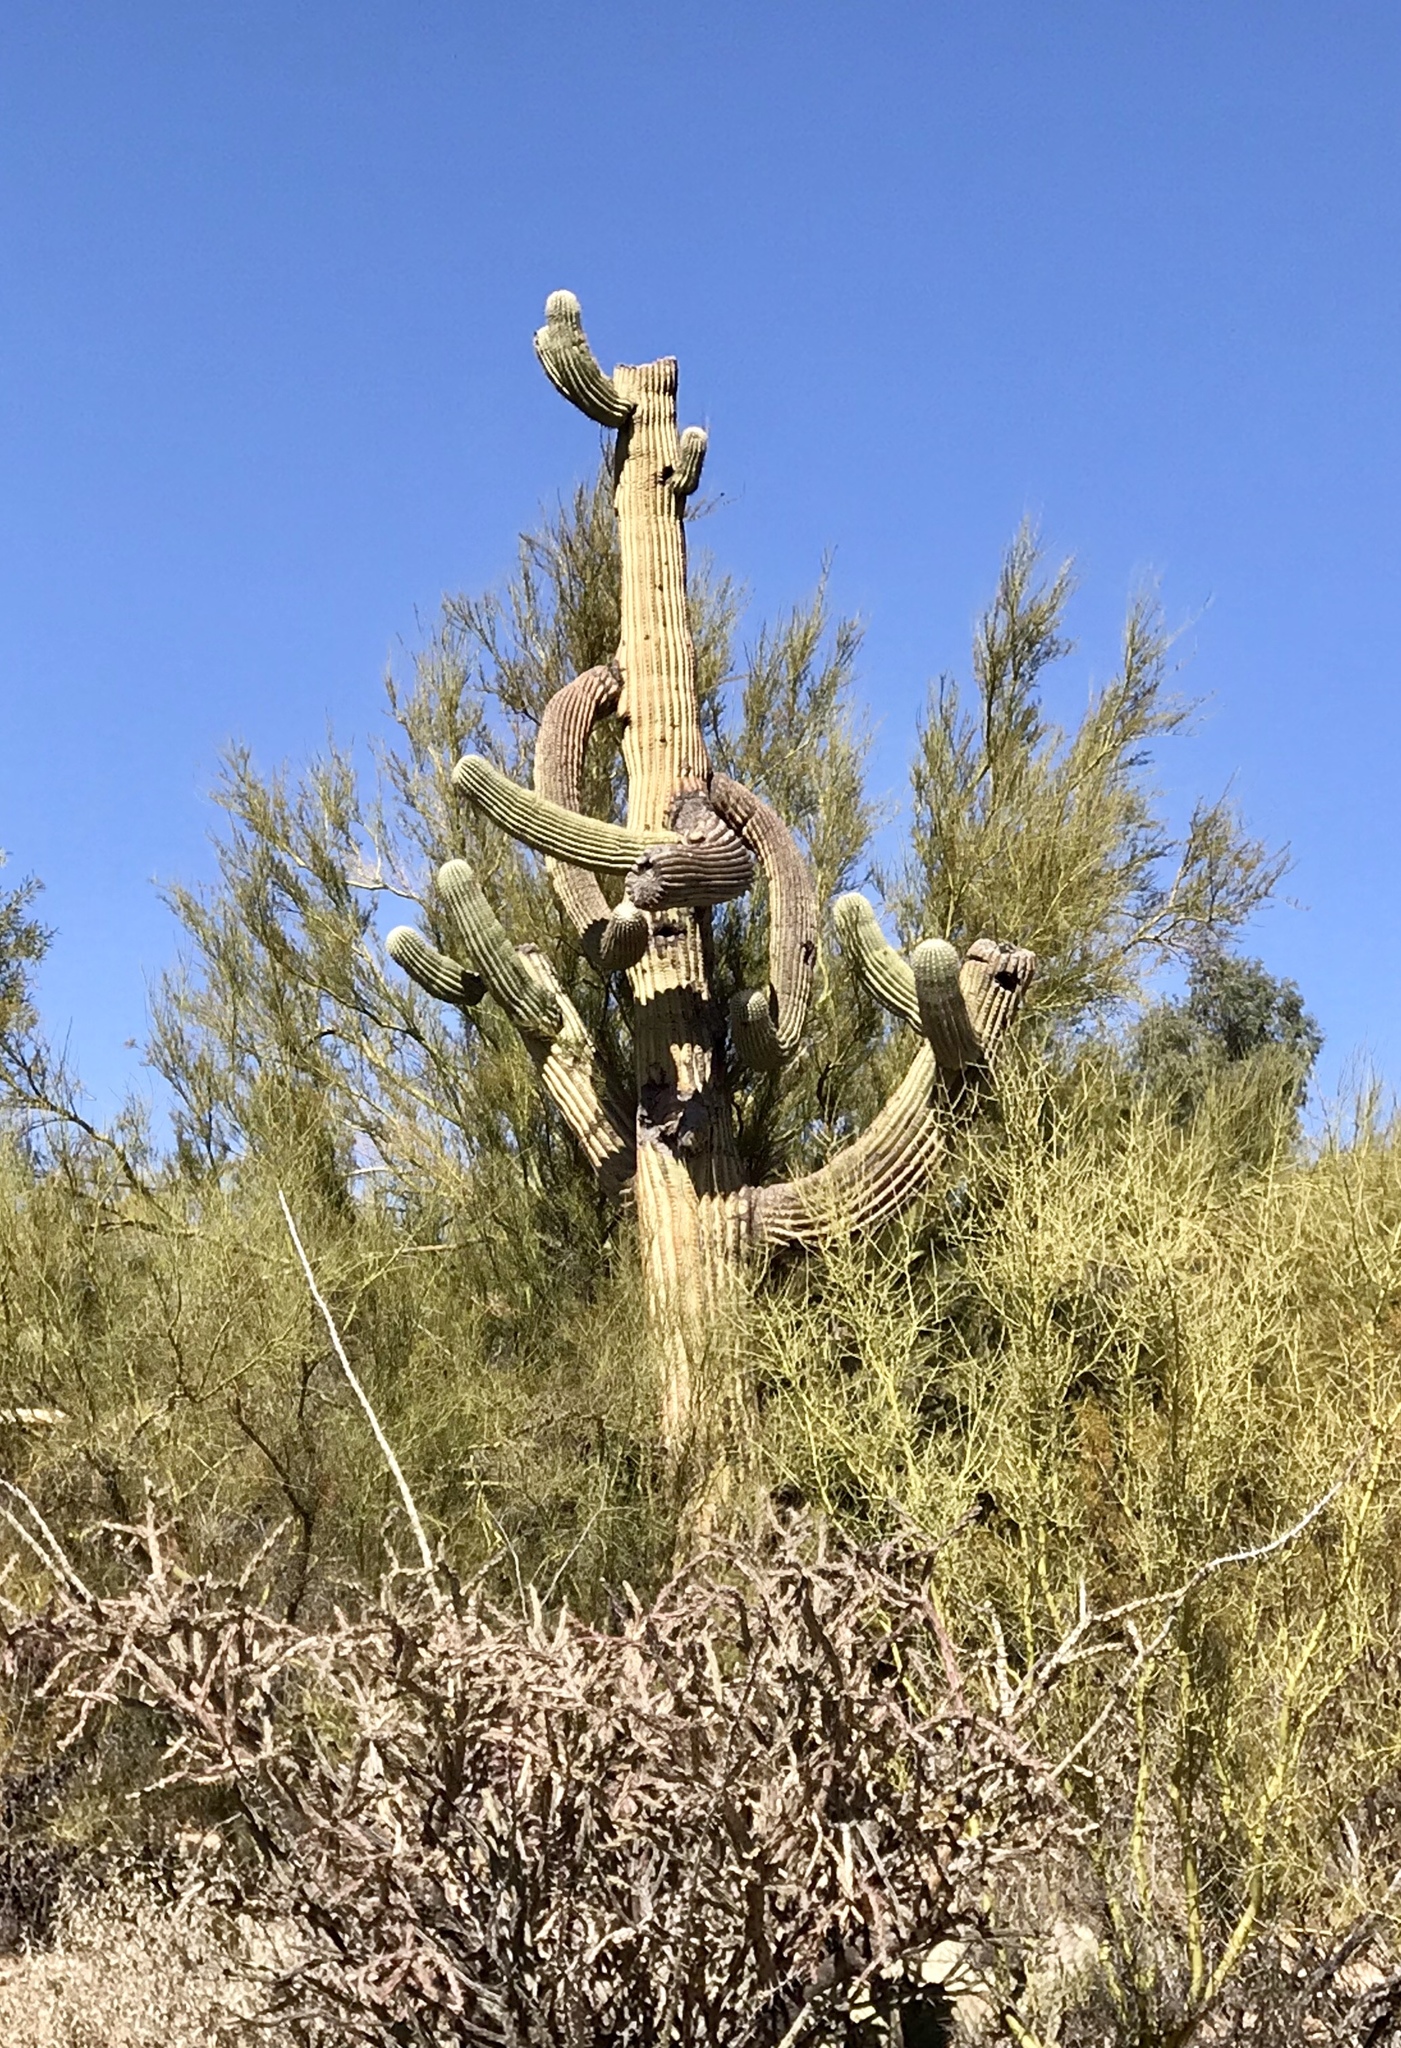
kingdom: Plantae
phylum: Tracheophyta
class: Magnoliopsida
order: Caryophyllales
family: Cactaceae
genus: Carnegiea
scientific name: Carnegiea gigantea
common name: Saguaro
